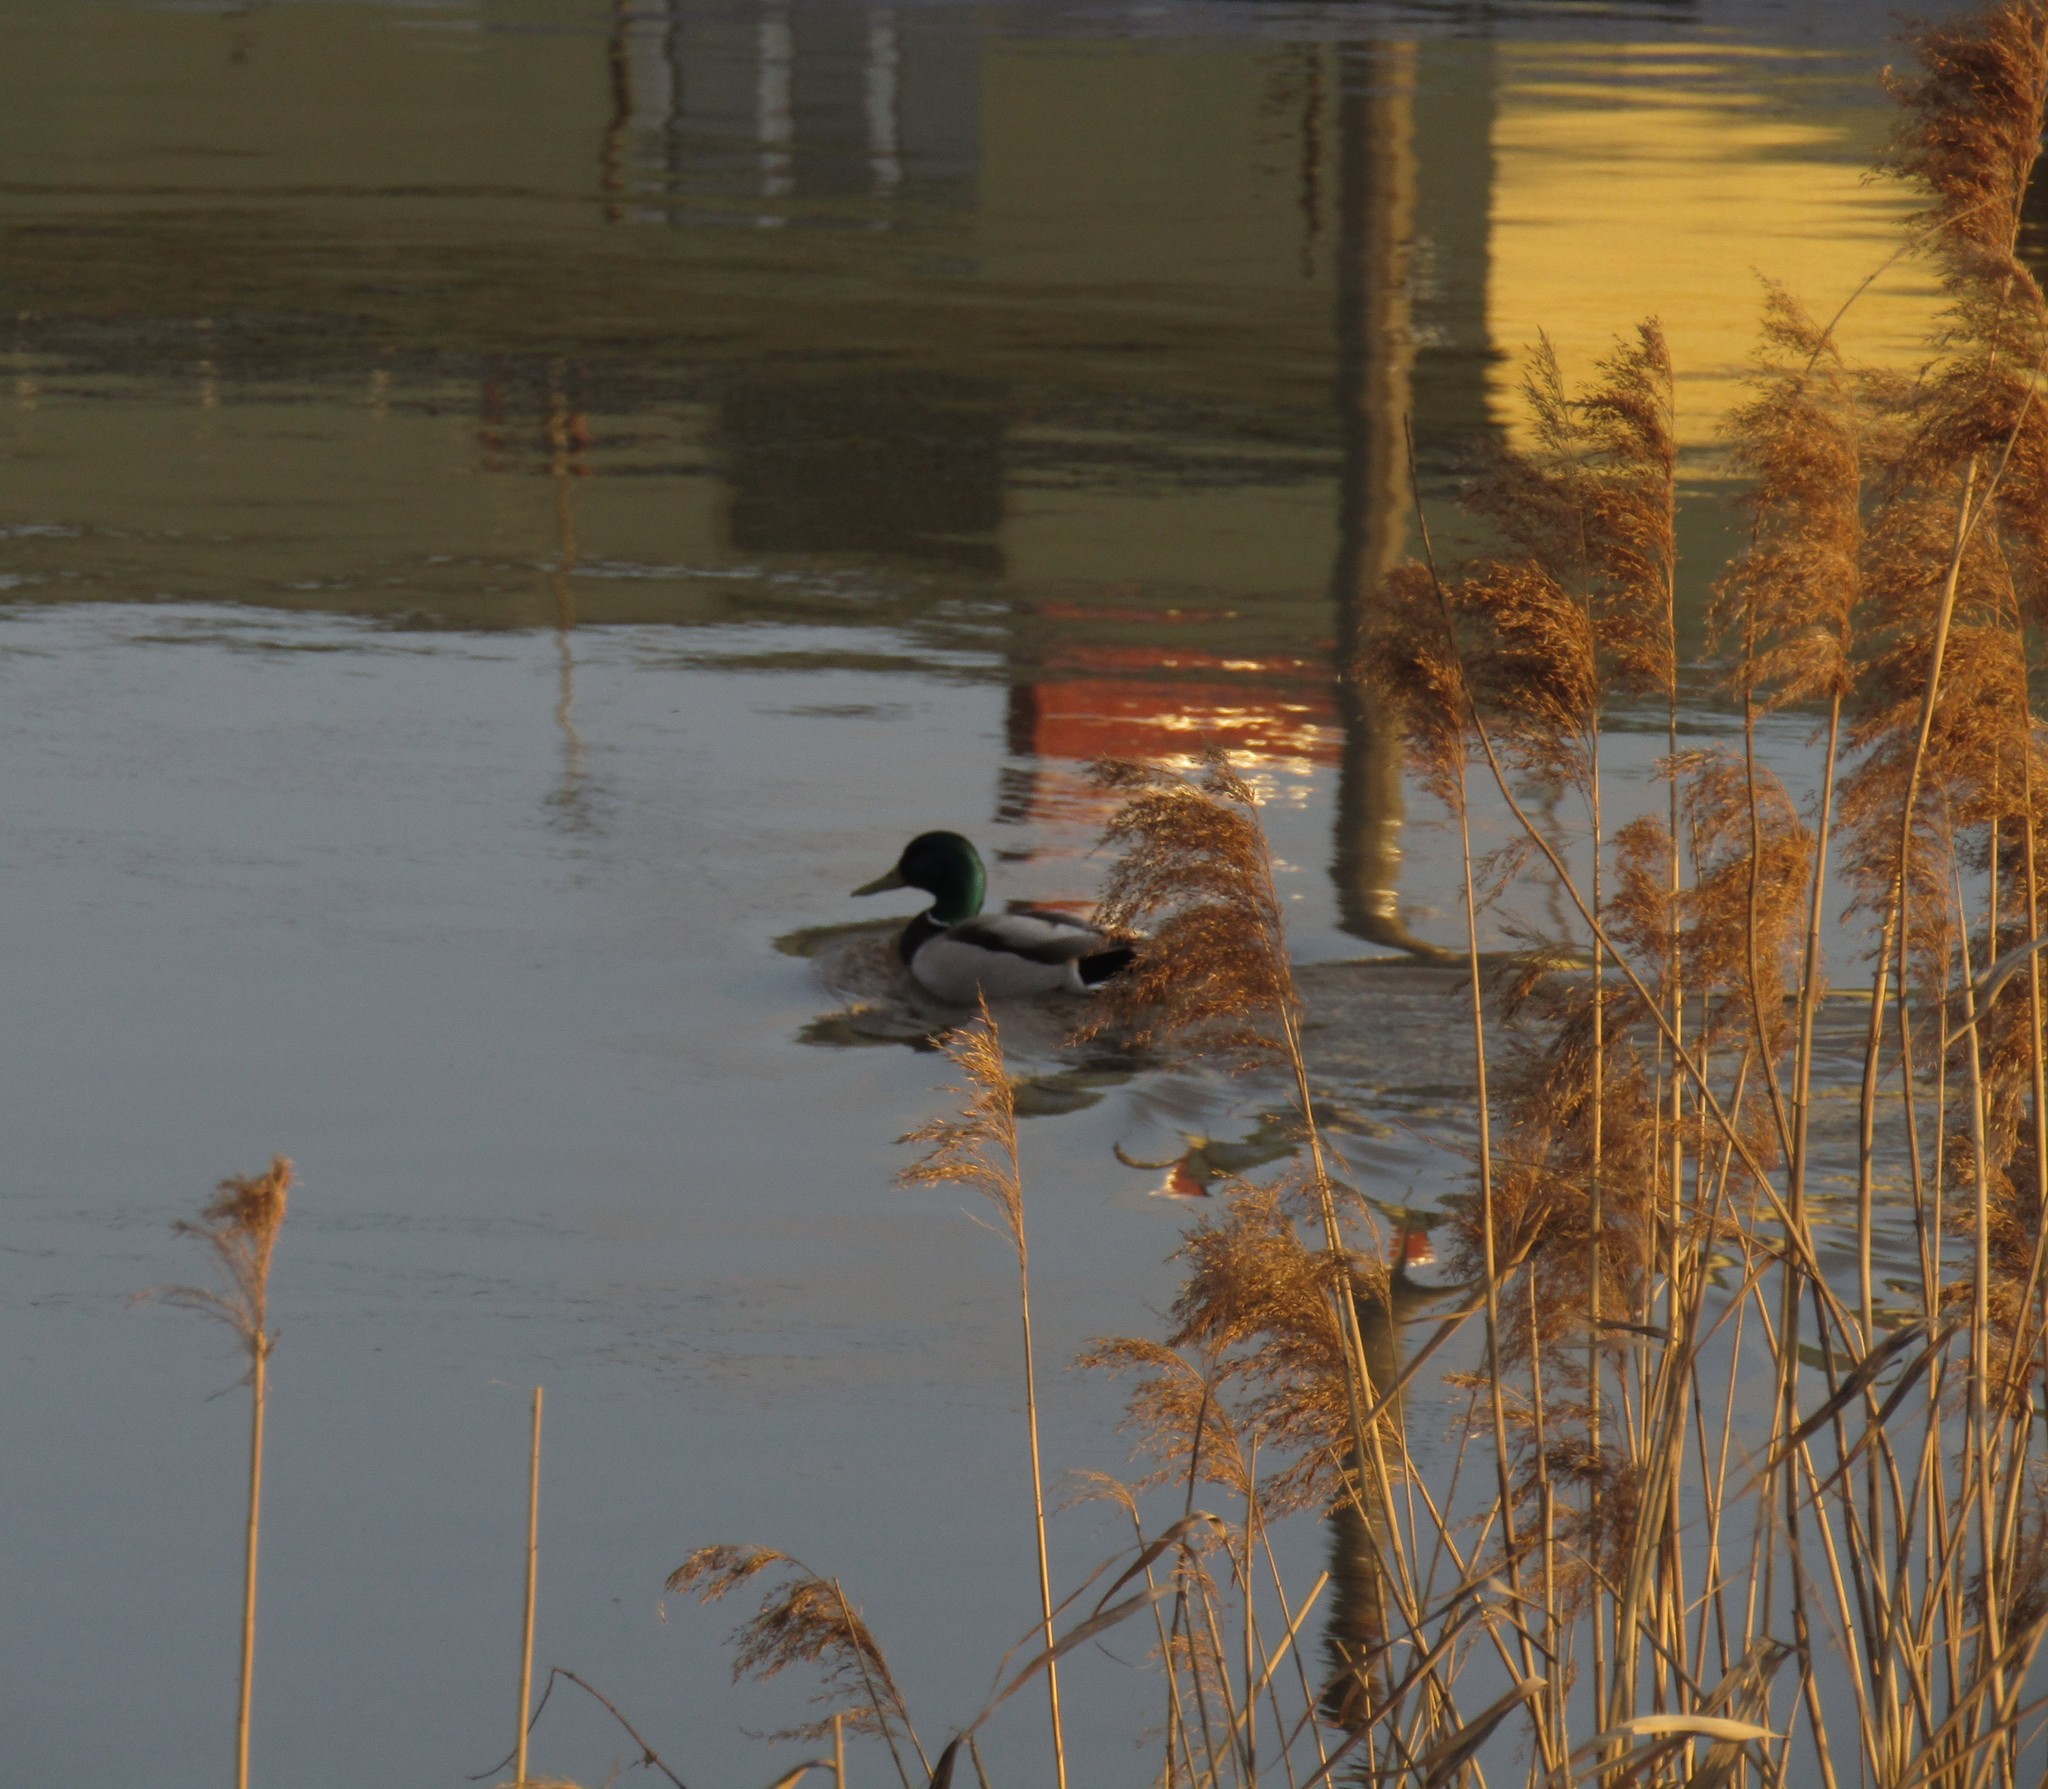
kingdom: Animalia
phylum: Chordata
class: Aves
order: Anseriformes
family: Anatidae
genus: Anas
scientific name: Anas platyrhynchos
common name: Mallard
